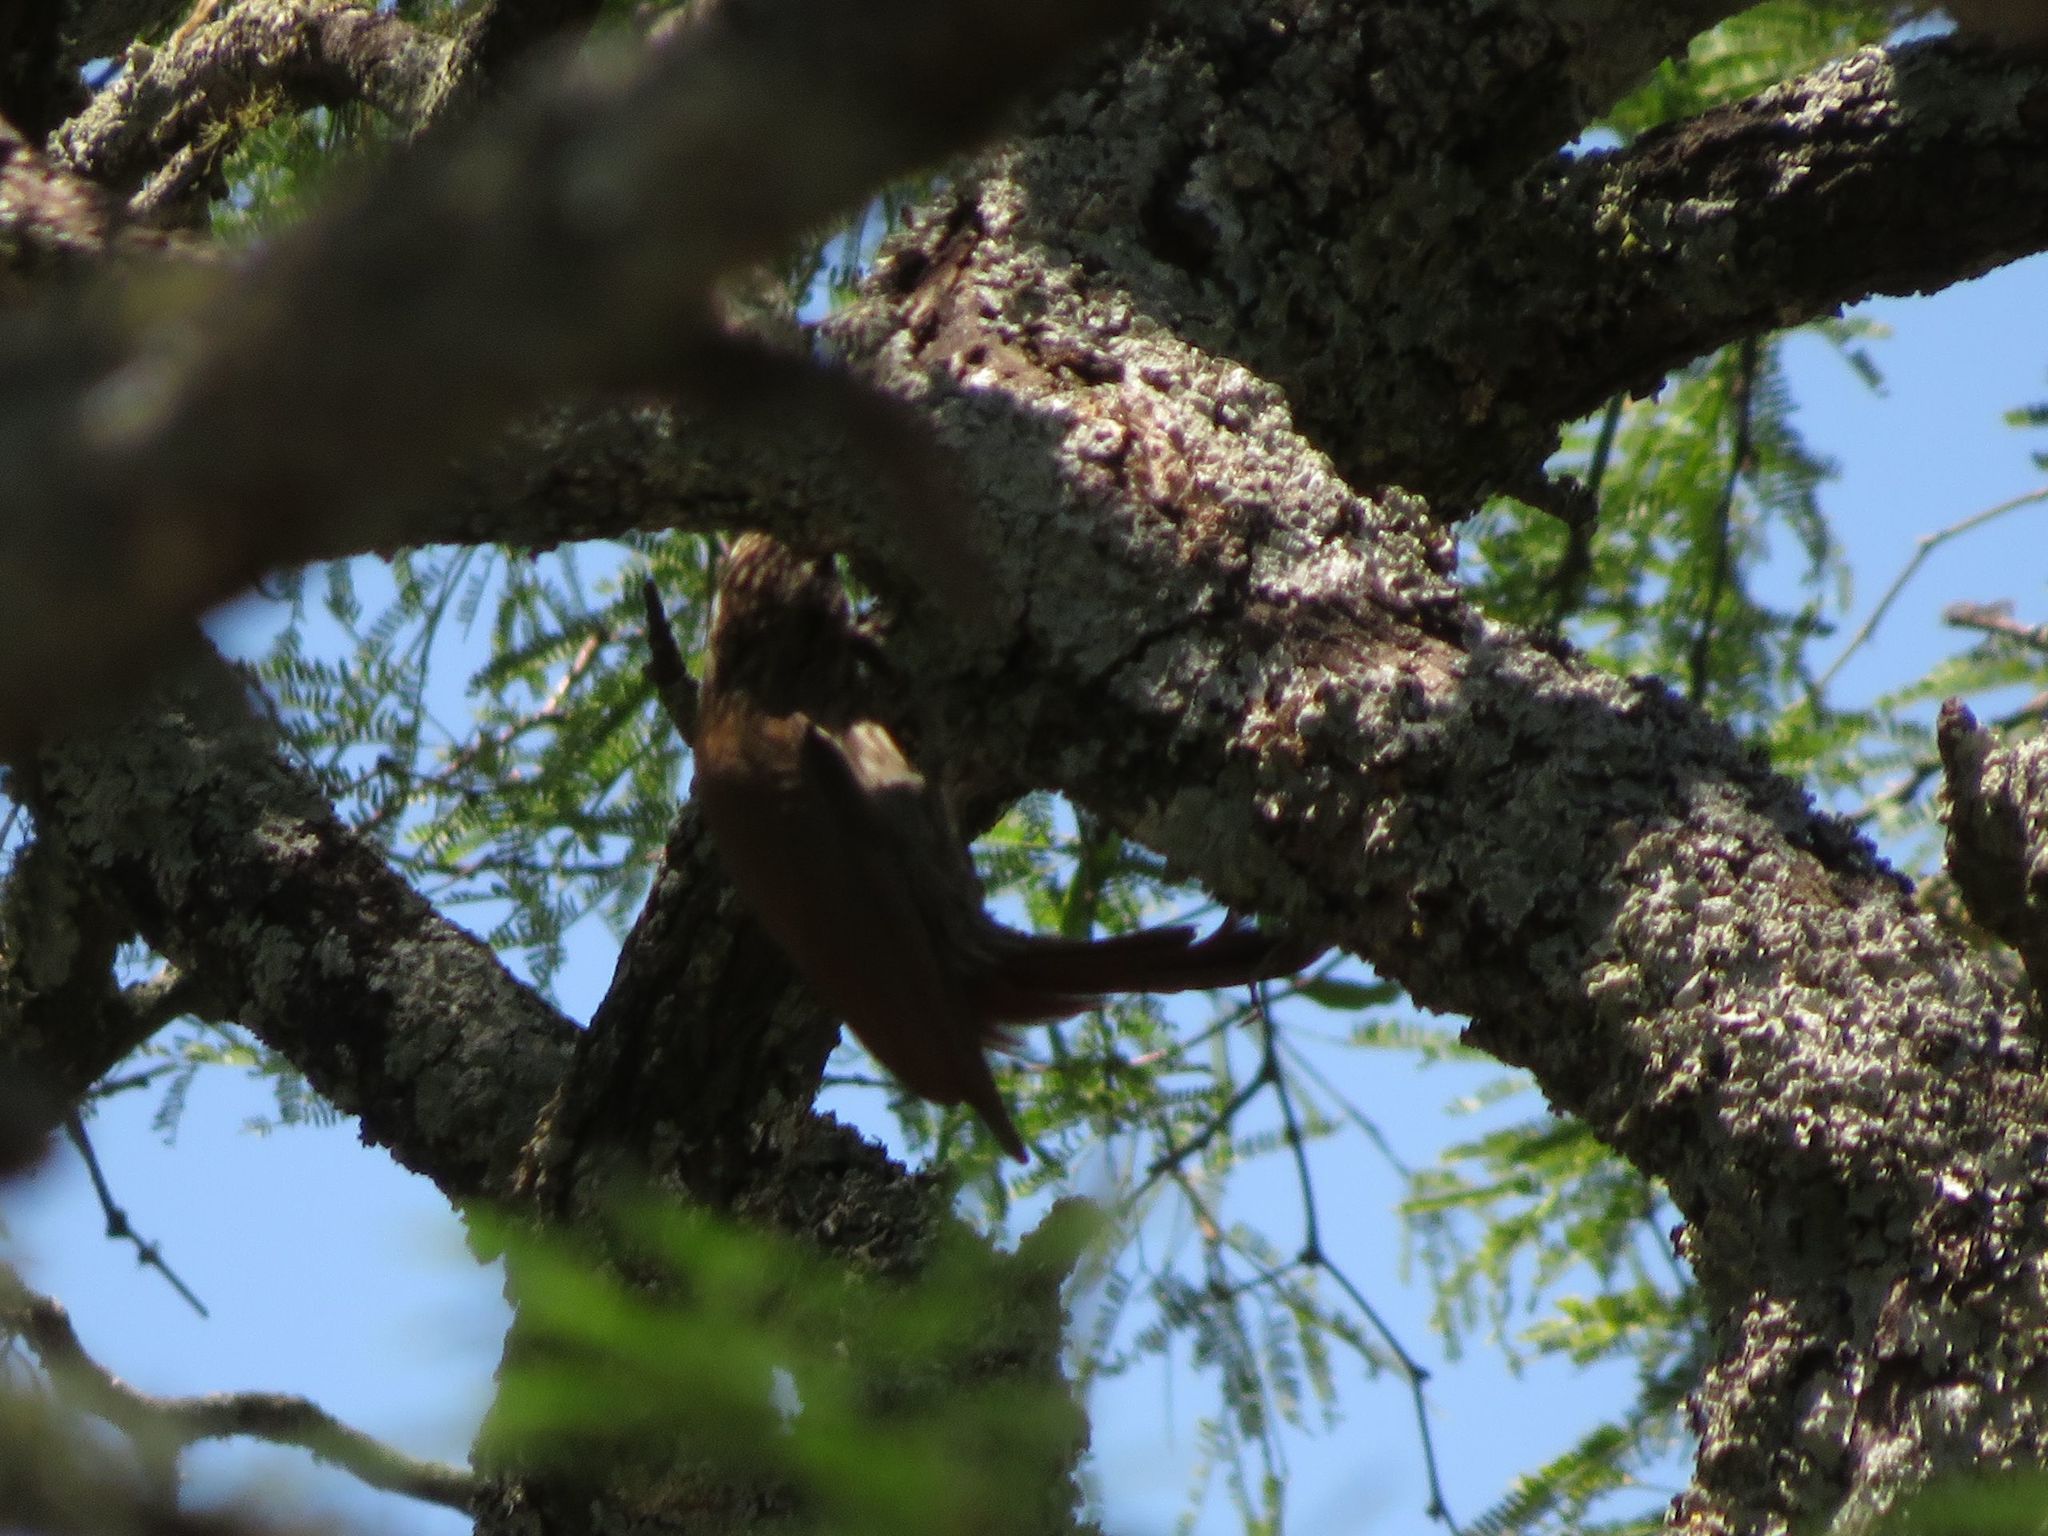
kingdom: Animalia
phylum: Chordata
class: Aves
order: Passeriformes
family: Furnariidae
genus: Lepidocolaptes
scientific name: Lepidocolaptes angustirostris
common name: Narrow-billed woodcreeper
